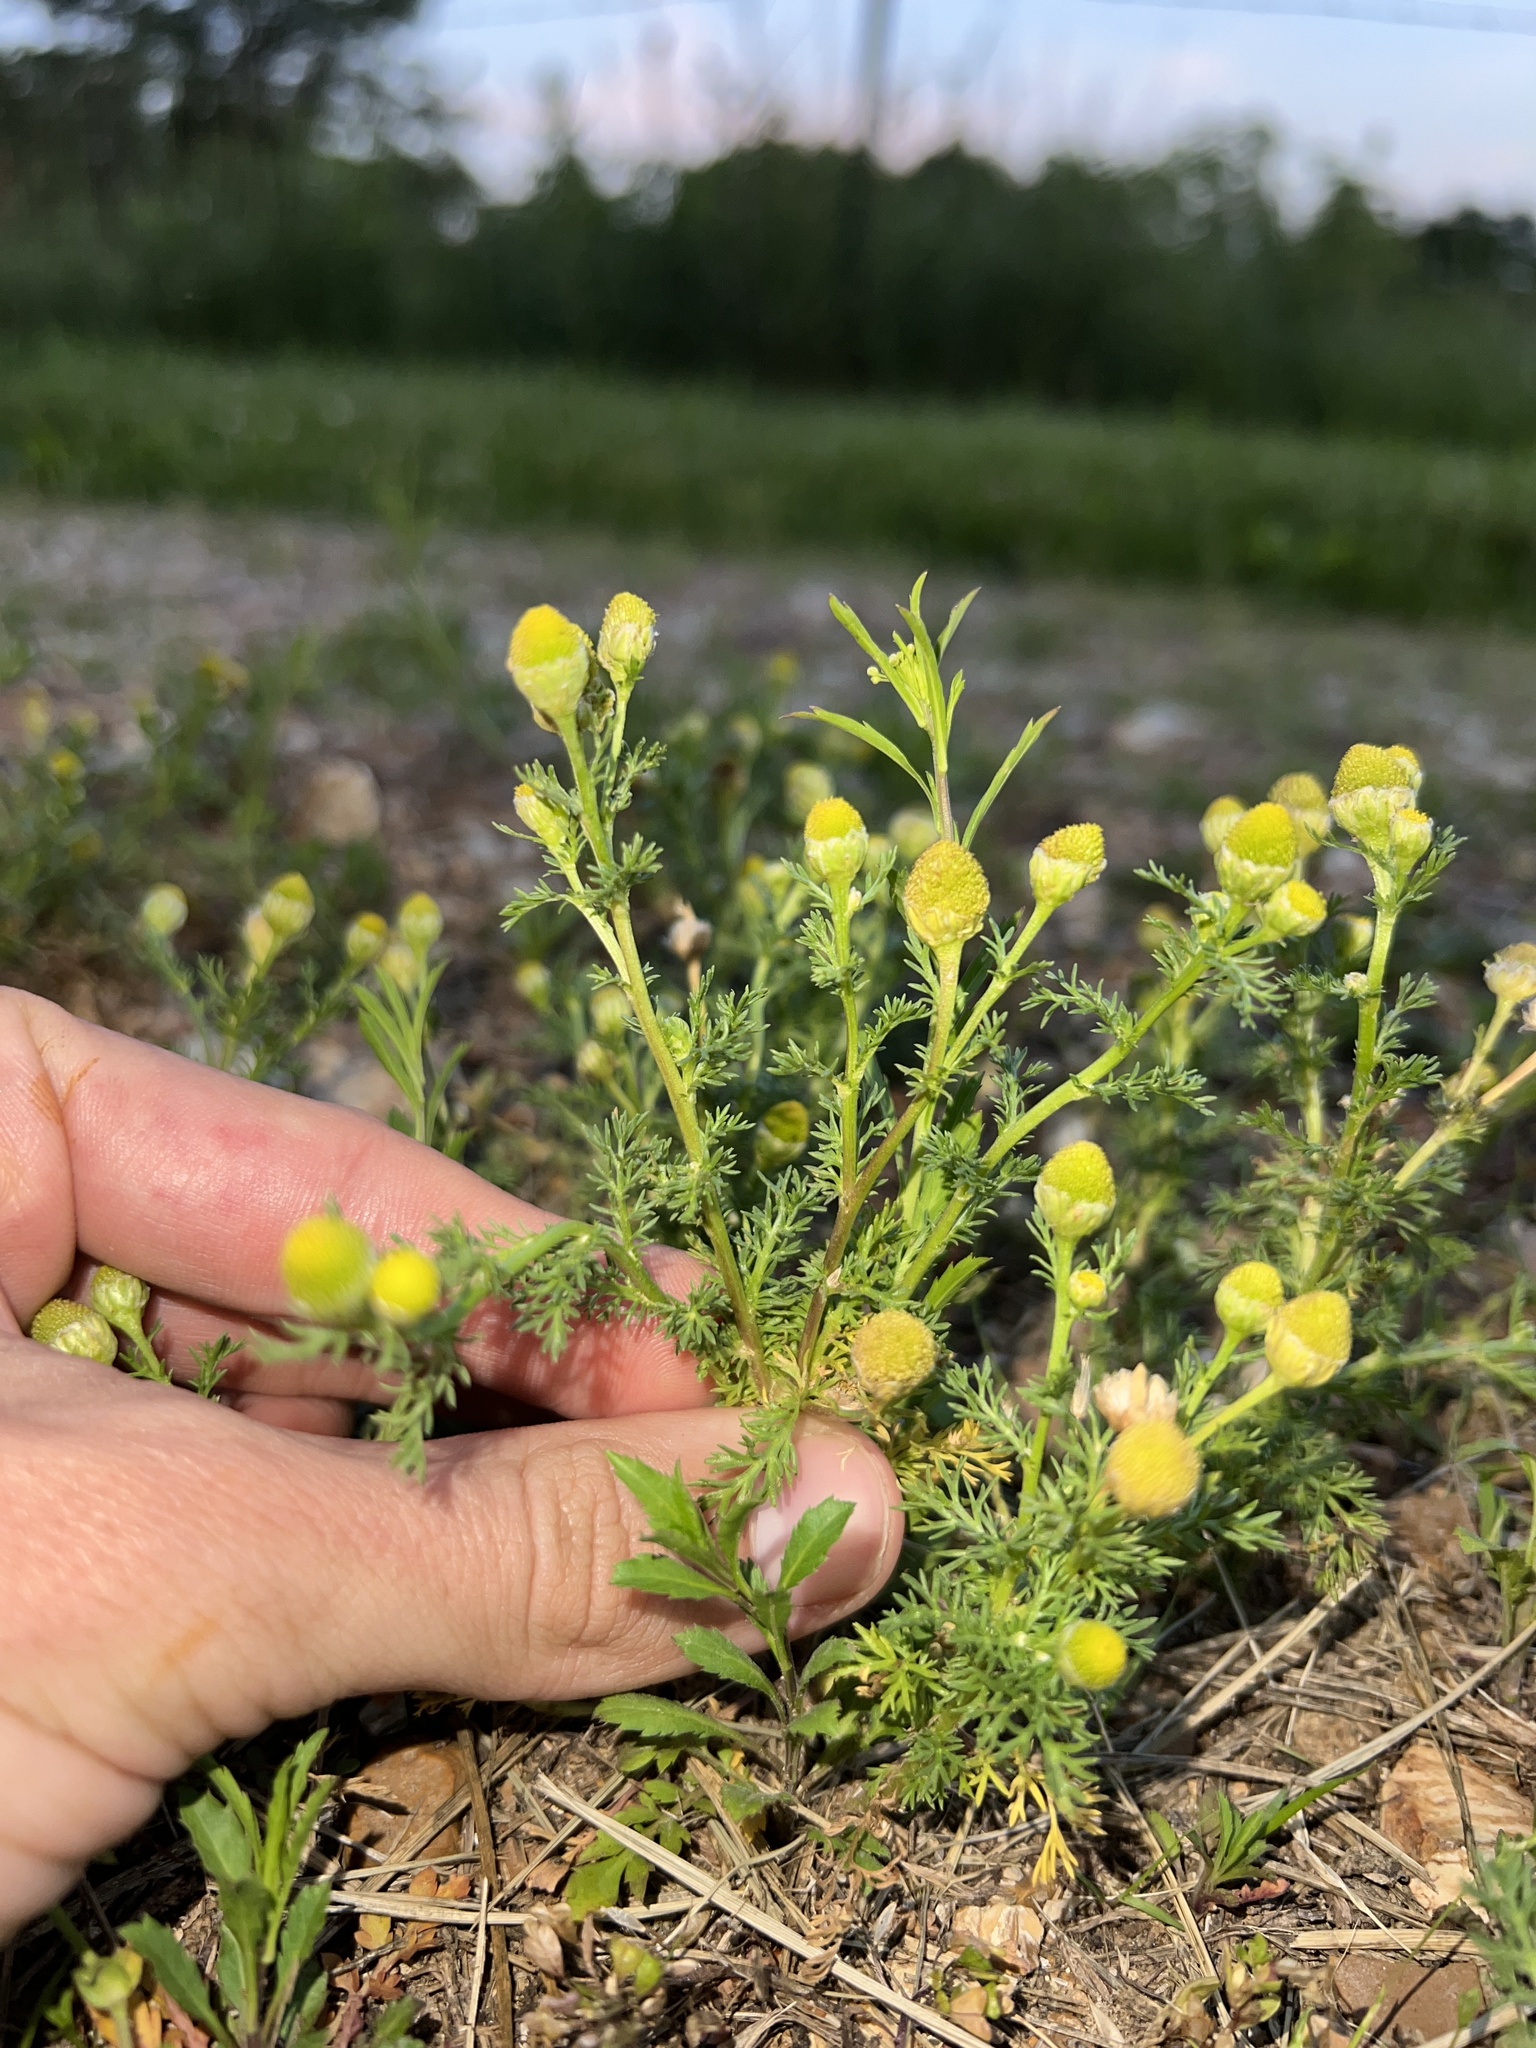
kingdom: Plantae
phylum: Tracheophyta
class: Magnoliopsida
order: Asterales
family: Asteraceae
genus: Matricaria
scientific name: Matricaria discoidea
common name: Disc mayweed
